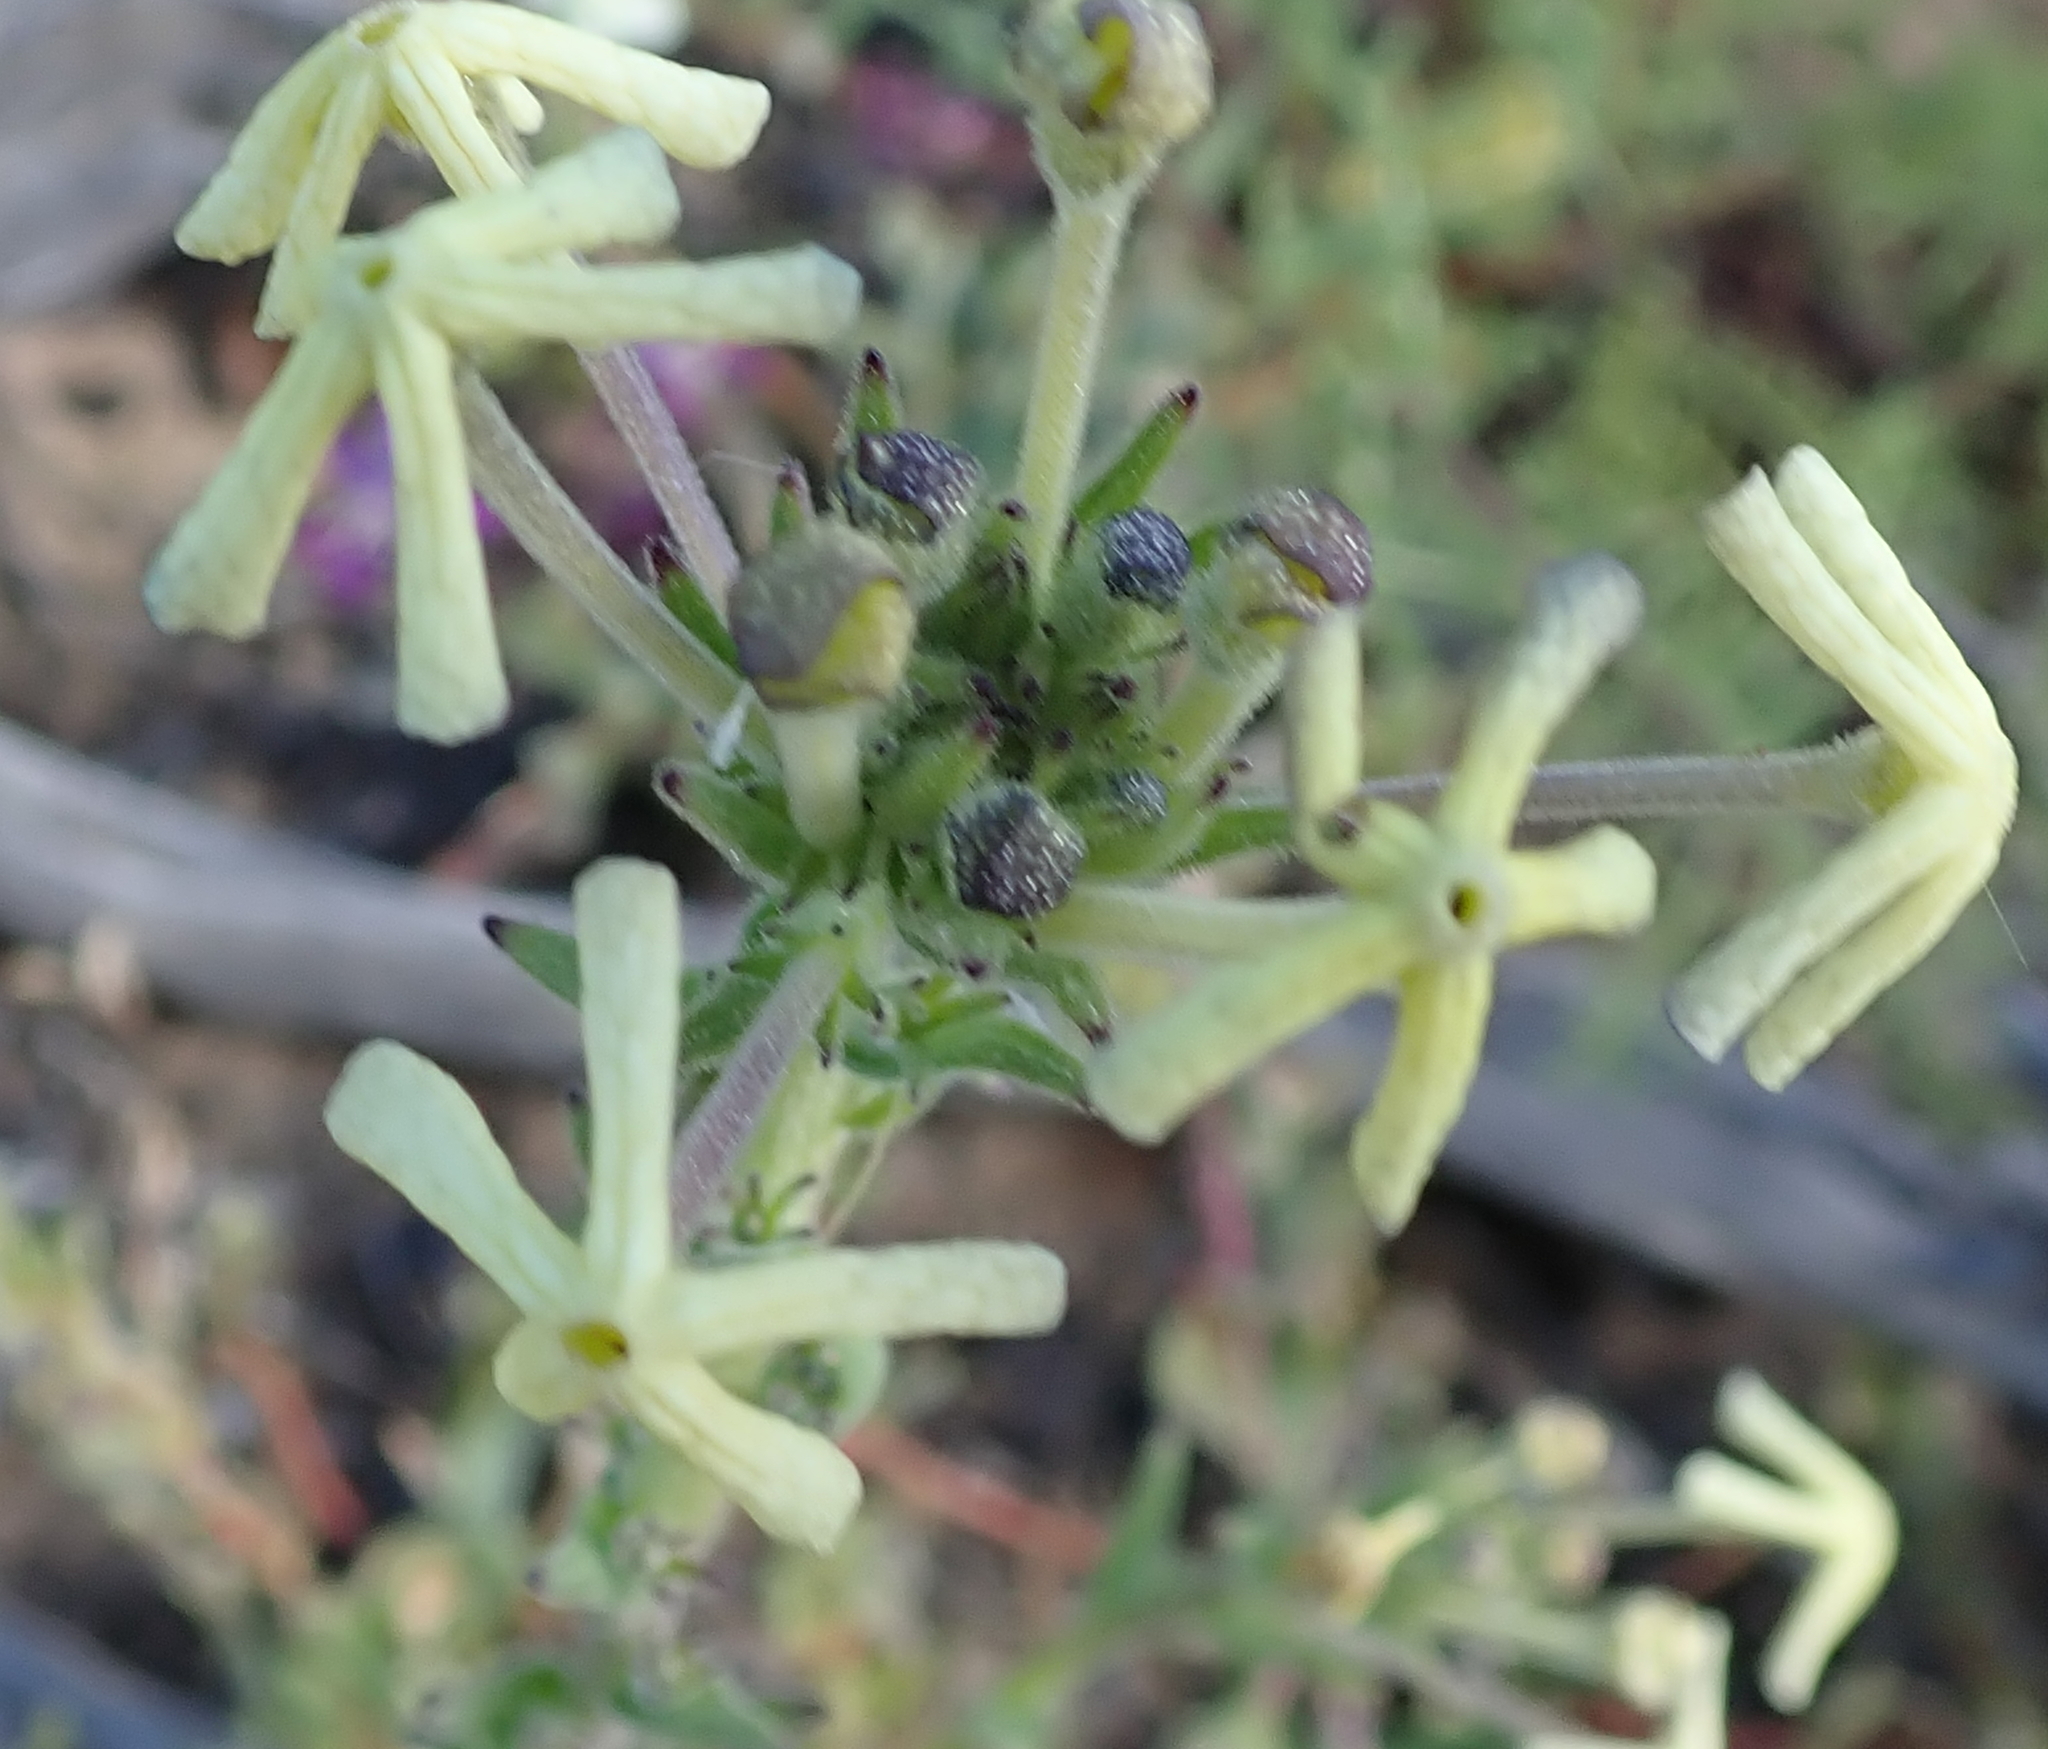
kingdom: Plantae
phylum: Tracheophyta
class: Magnoliopsida
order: Lamiales
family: Scrophulariaceae
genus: Lyperia
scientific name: Lyperia tristis
